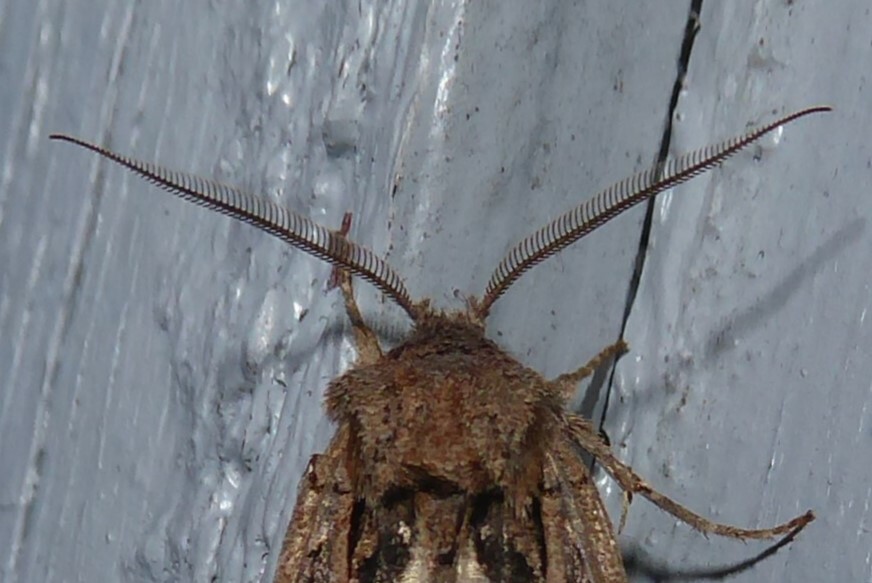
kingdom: Animalia
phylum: Arthropoda
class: Insecta
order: Lepidoptera
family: Noctuidae
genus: Ichneutica
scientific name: Ichneutica
